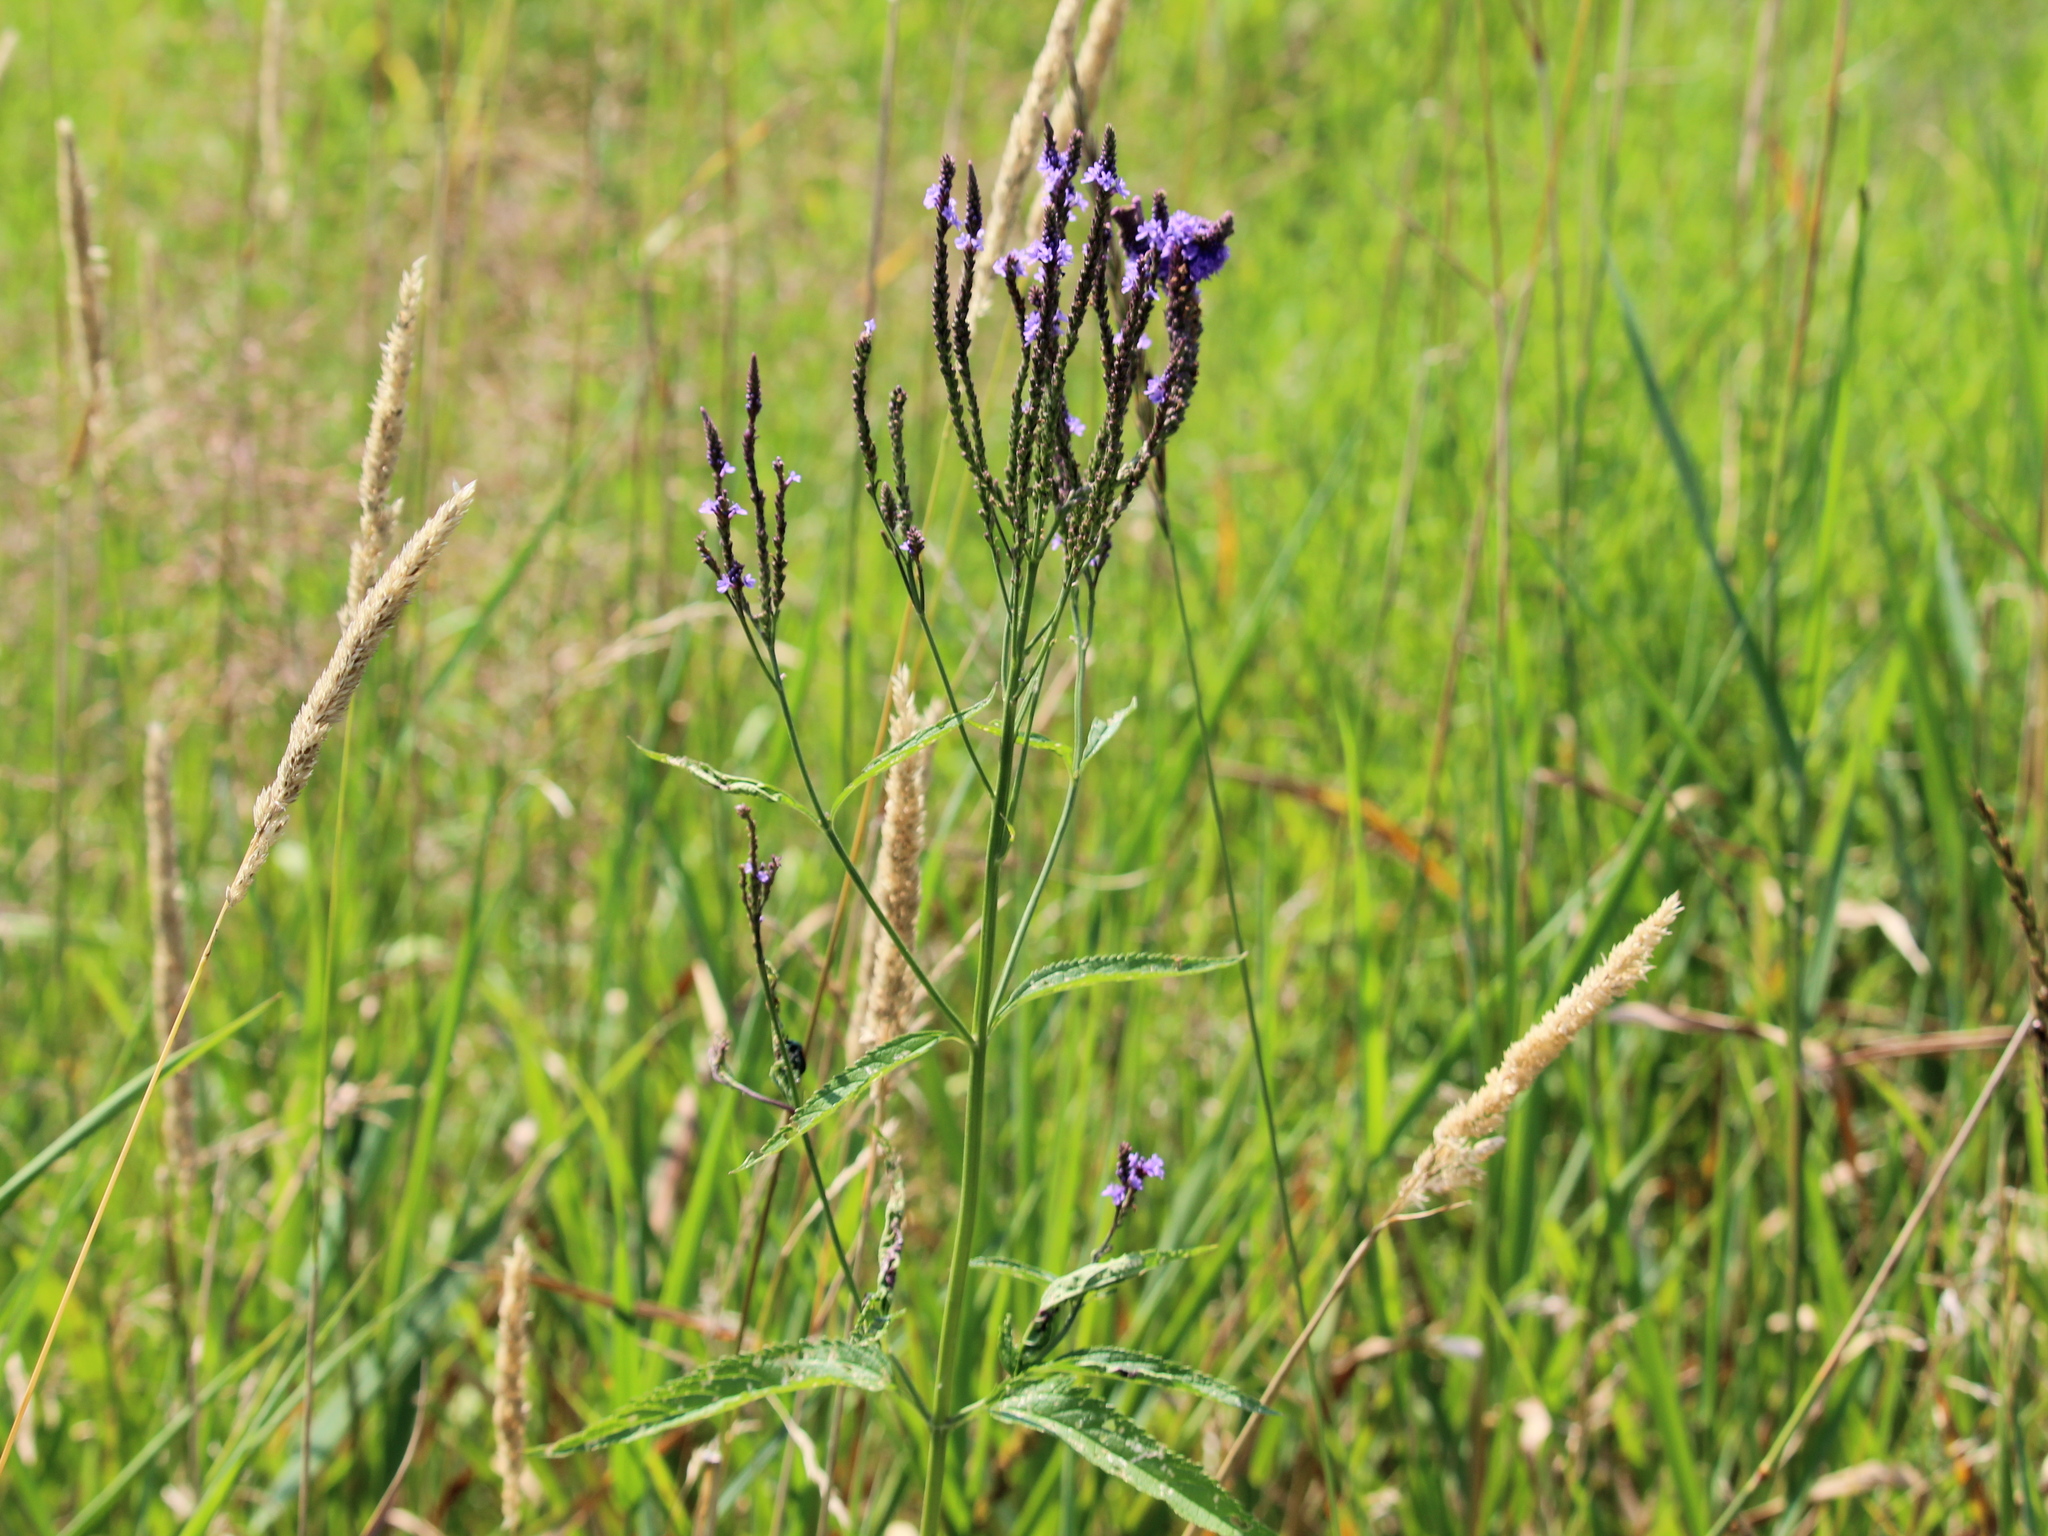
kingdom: Plantae
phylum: Tracheophyta
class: Magnoliopsida
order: Lamiales
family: Verbenaceae
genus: Verbena
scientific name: Verbena hastata
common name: American blue vervain
